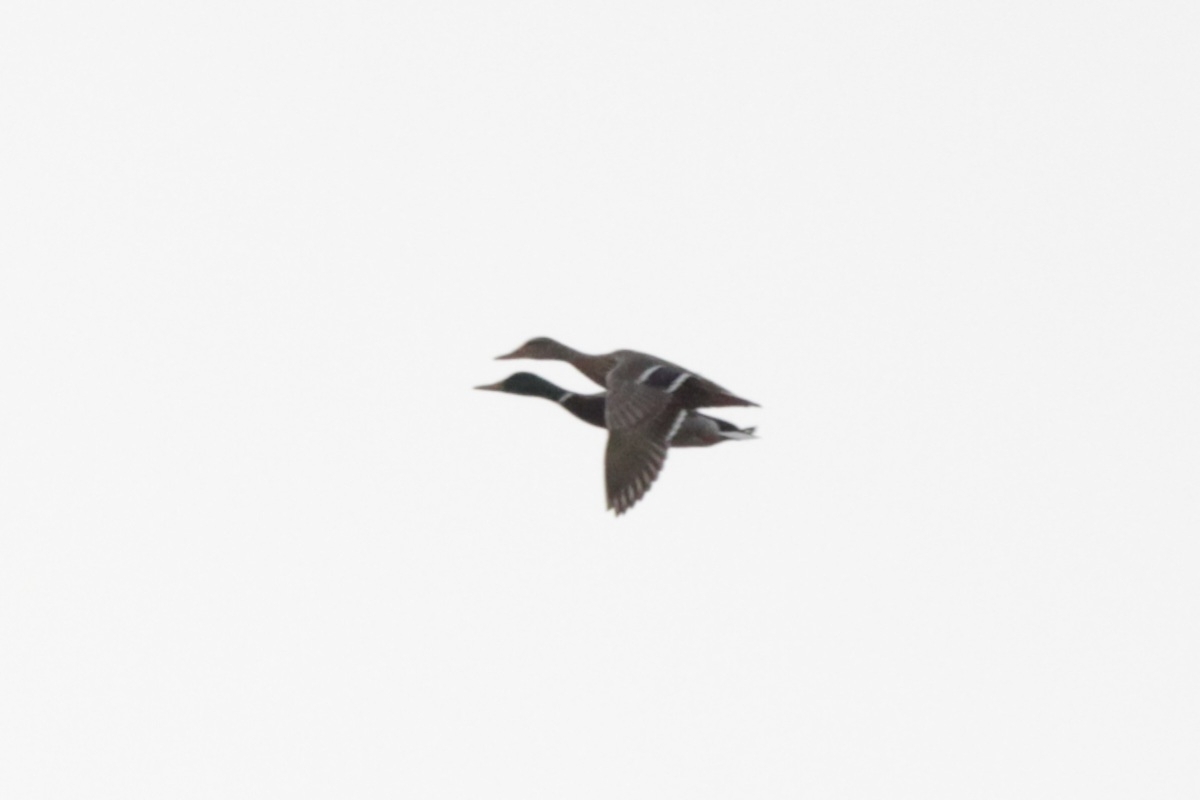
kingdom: Animalia
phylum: Chordata
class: Aves
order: Anseriformes
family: Anatidae
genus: Anas
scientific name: Anas platyrhynchos
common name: Mallard
